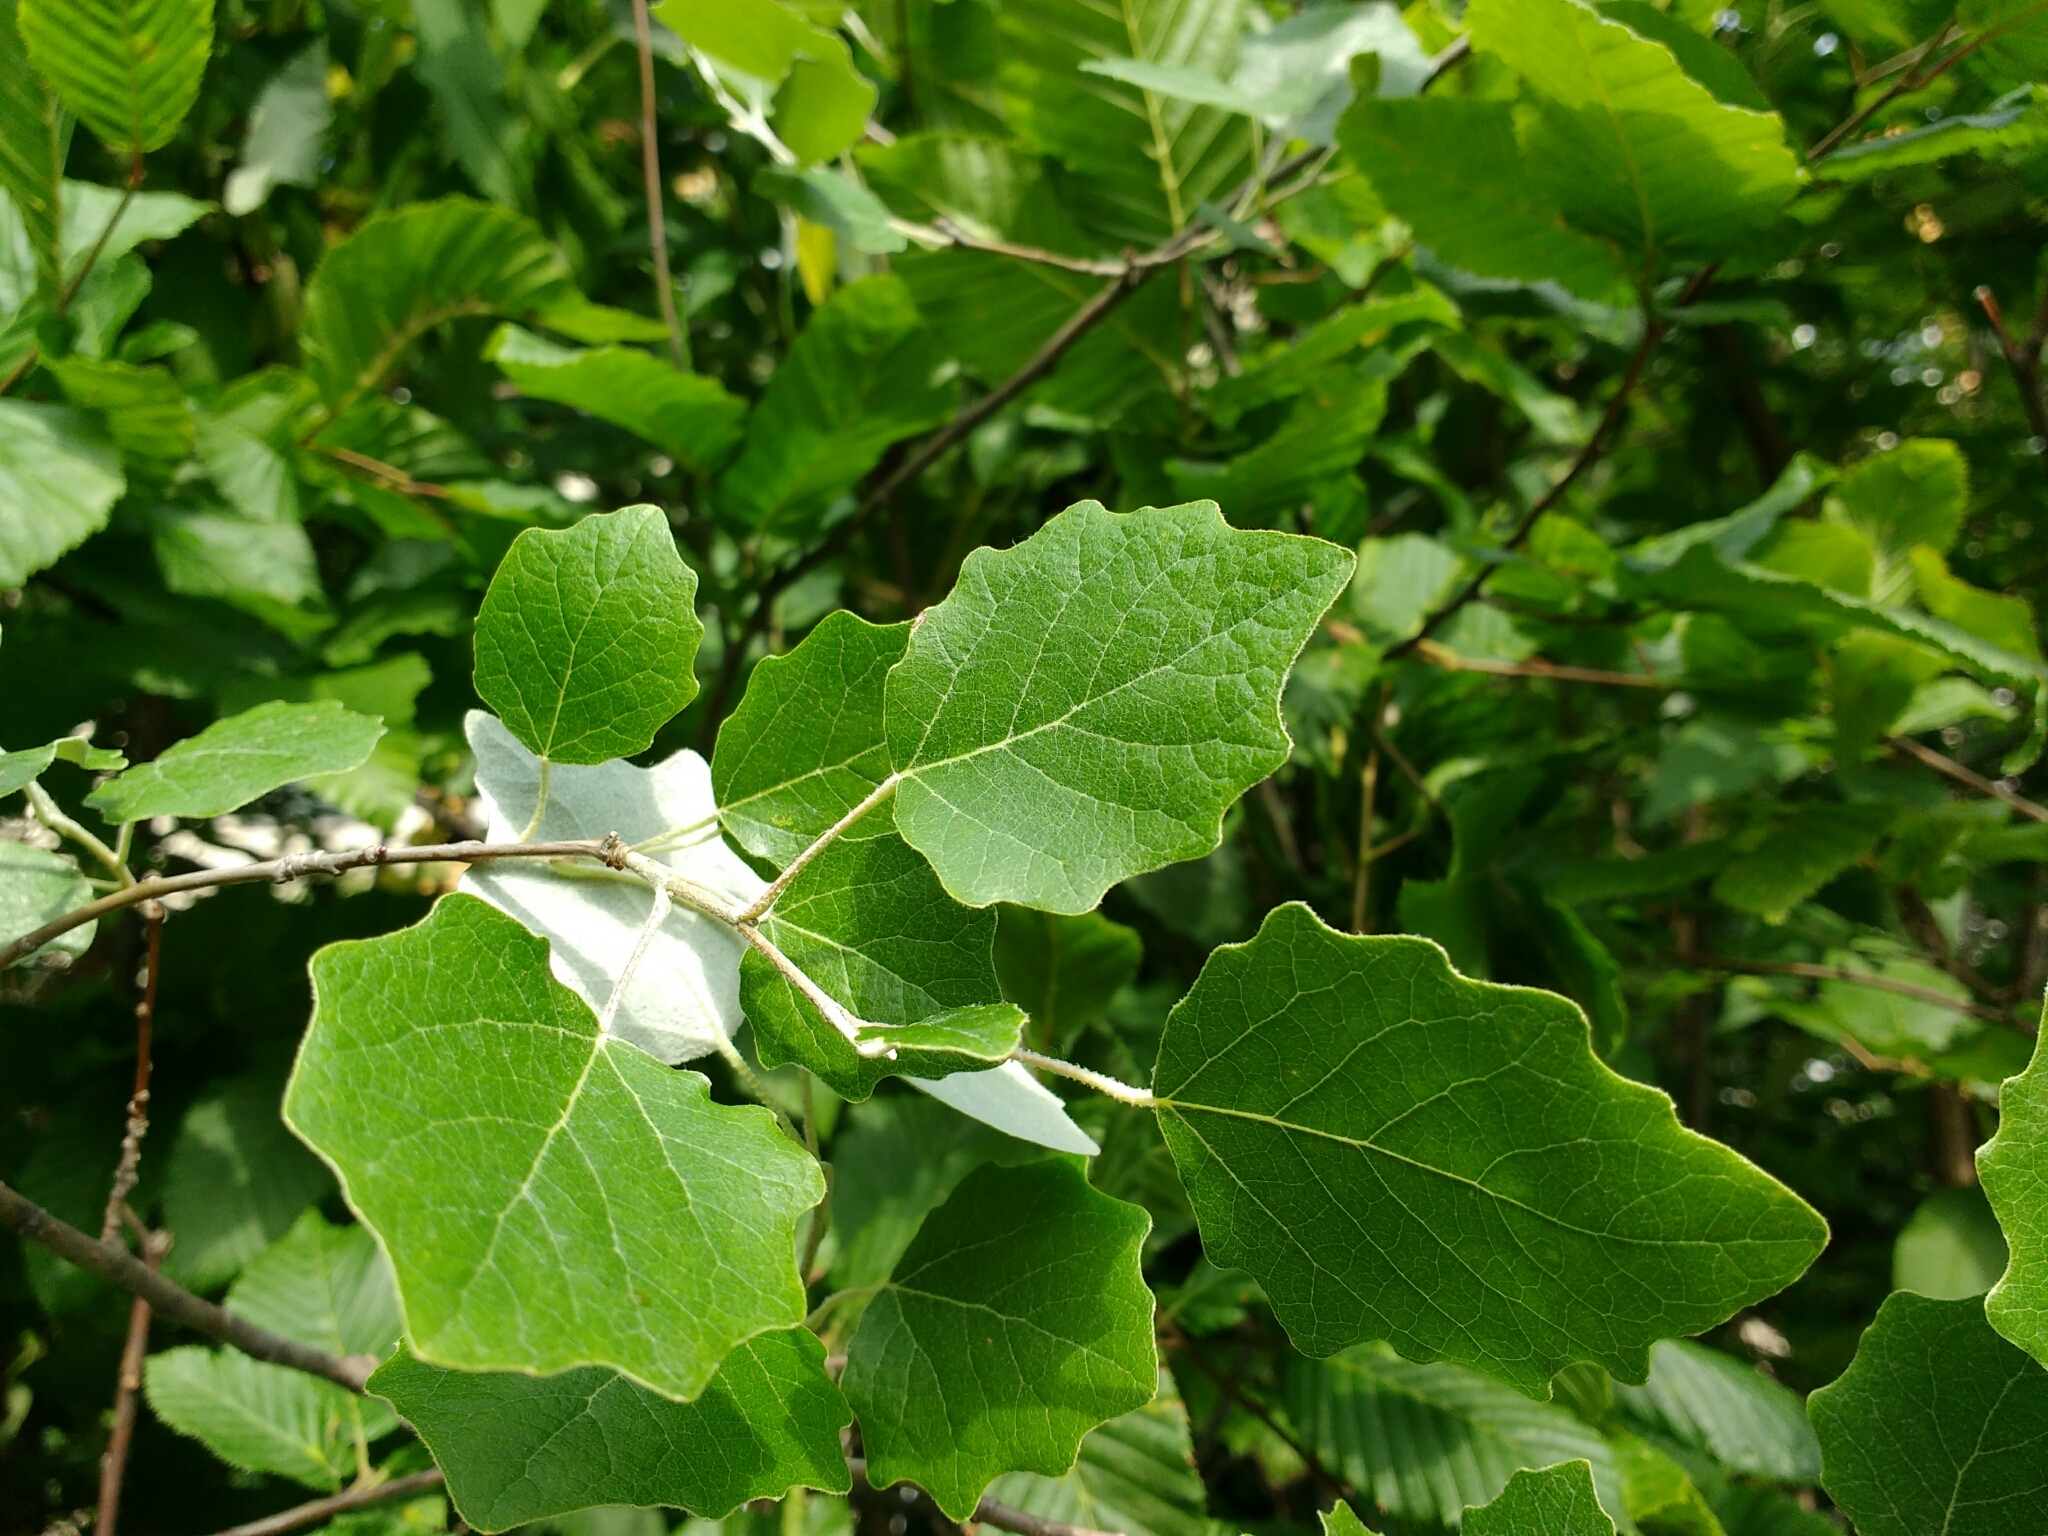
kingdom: Plantae
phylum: Tracheophyta
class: Magnoliopsida
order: Malpighiales
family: Salicaceae
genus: Populus
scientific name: Populus alba
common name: White poplar
